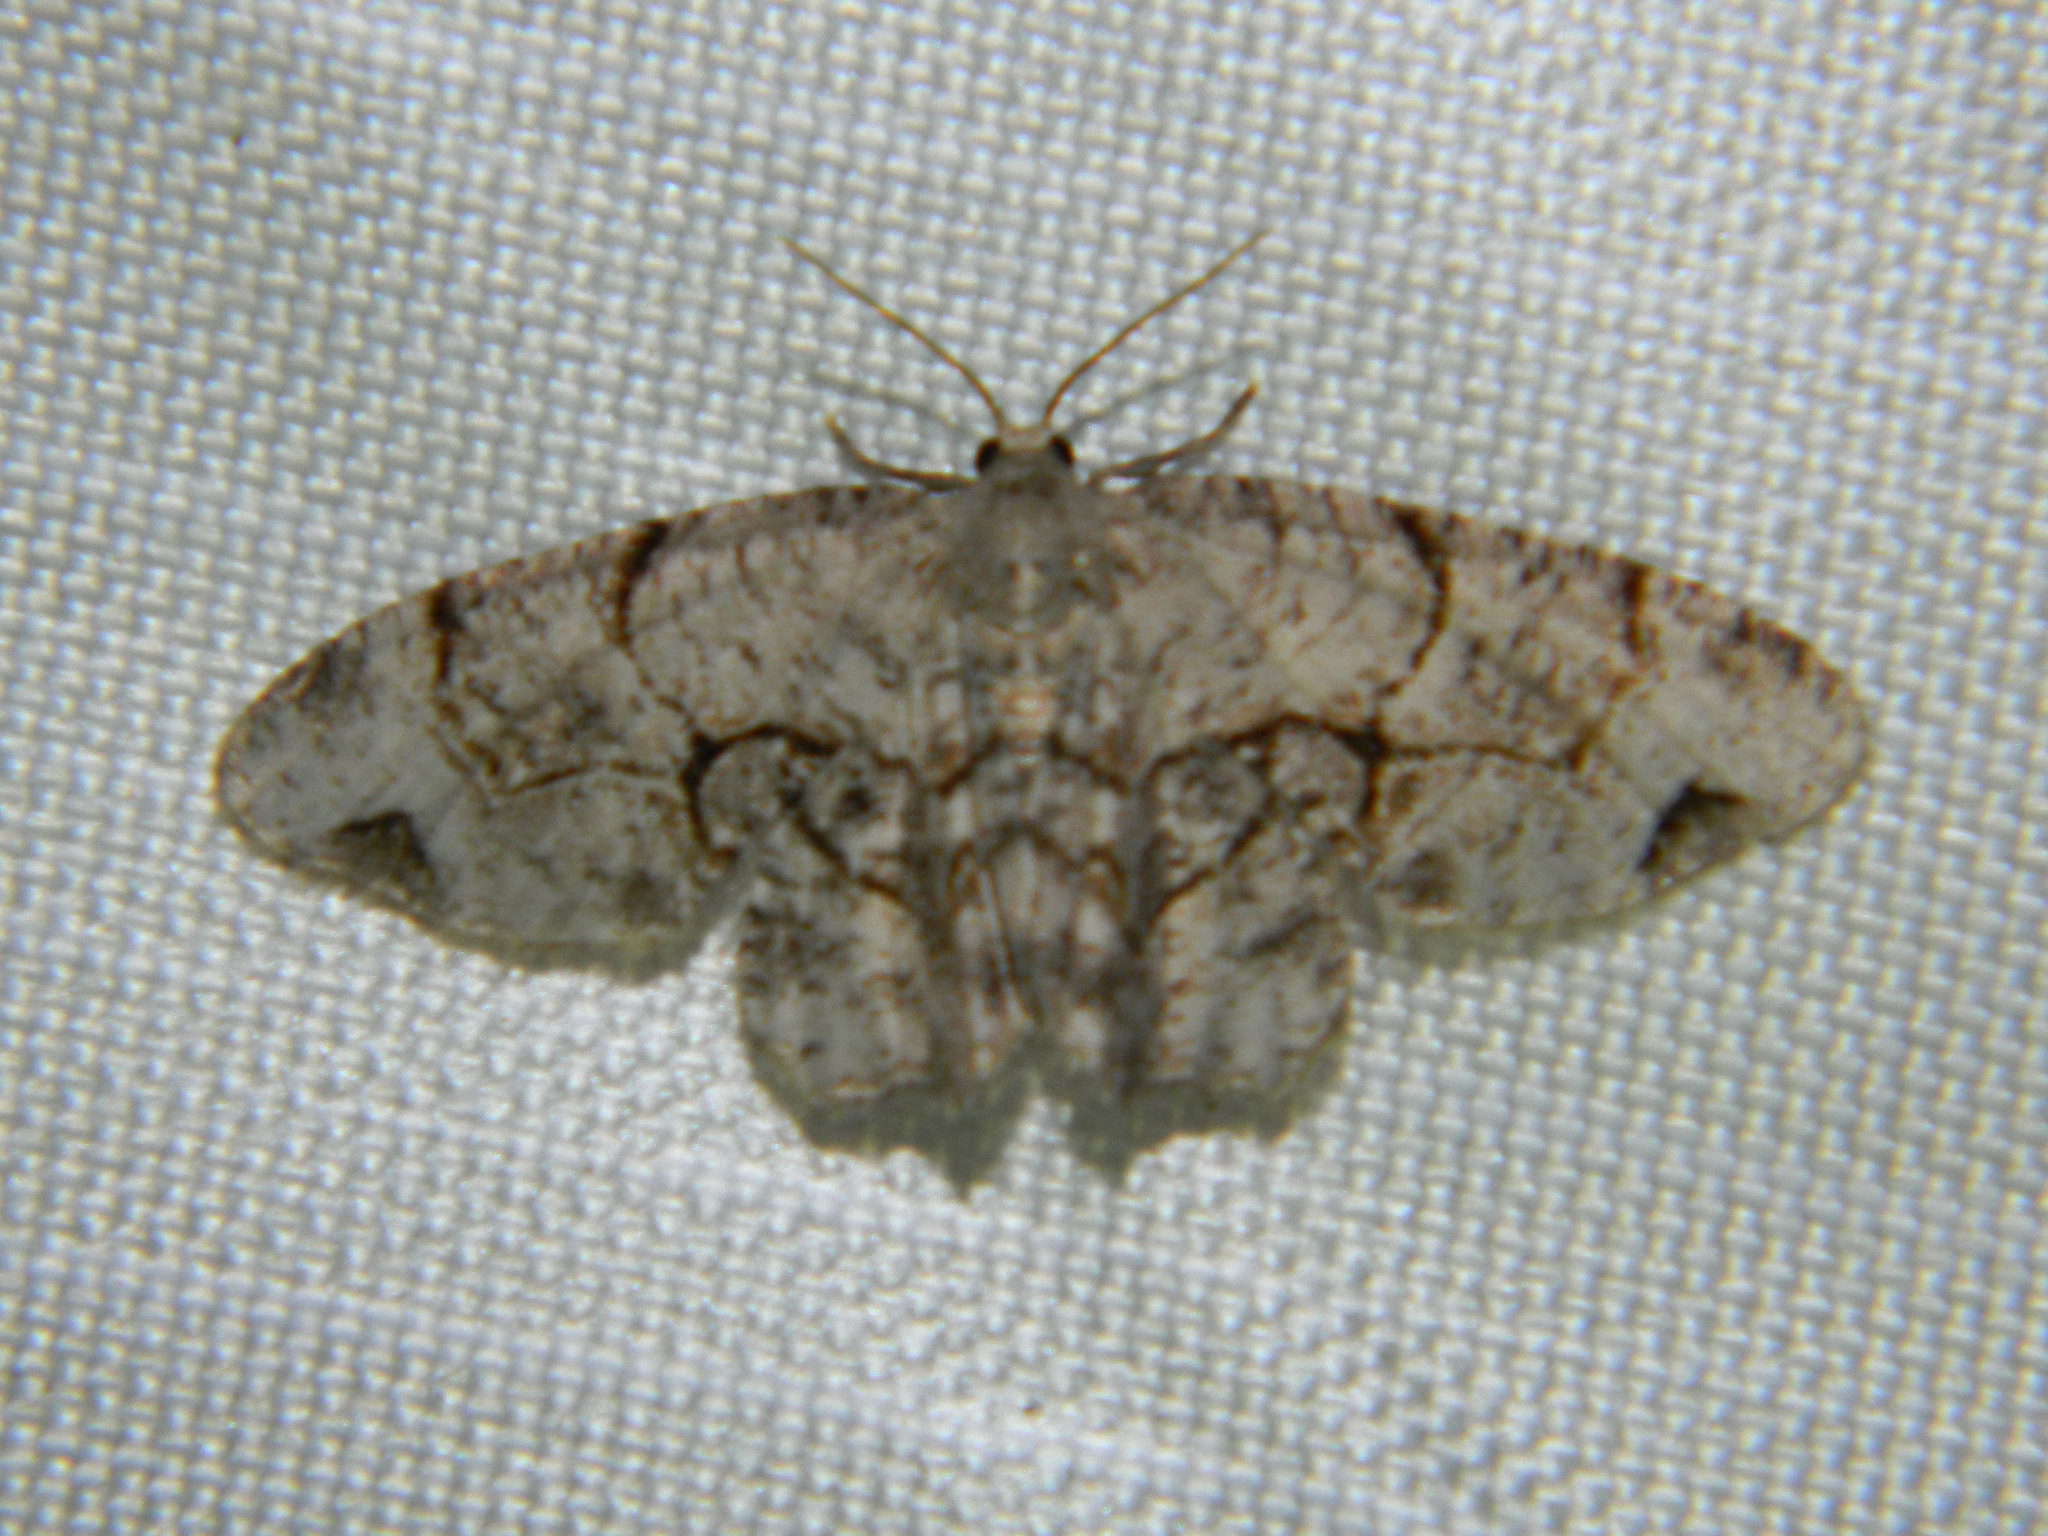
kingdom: Animalia
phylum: Arthropoda
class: Insecta
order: Lepidoptera
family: Uraniidae
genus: Epiplema
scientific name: Epiplema Callizzia amorata
